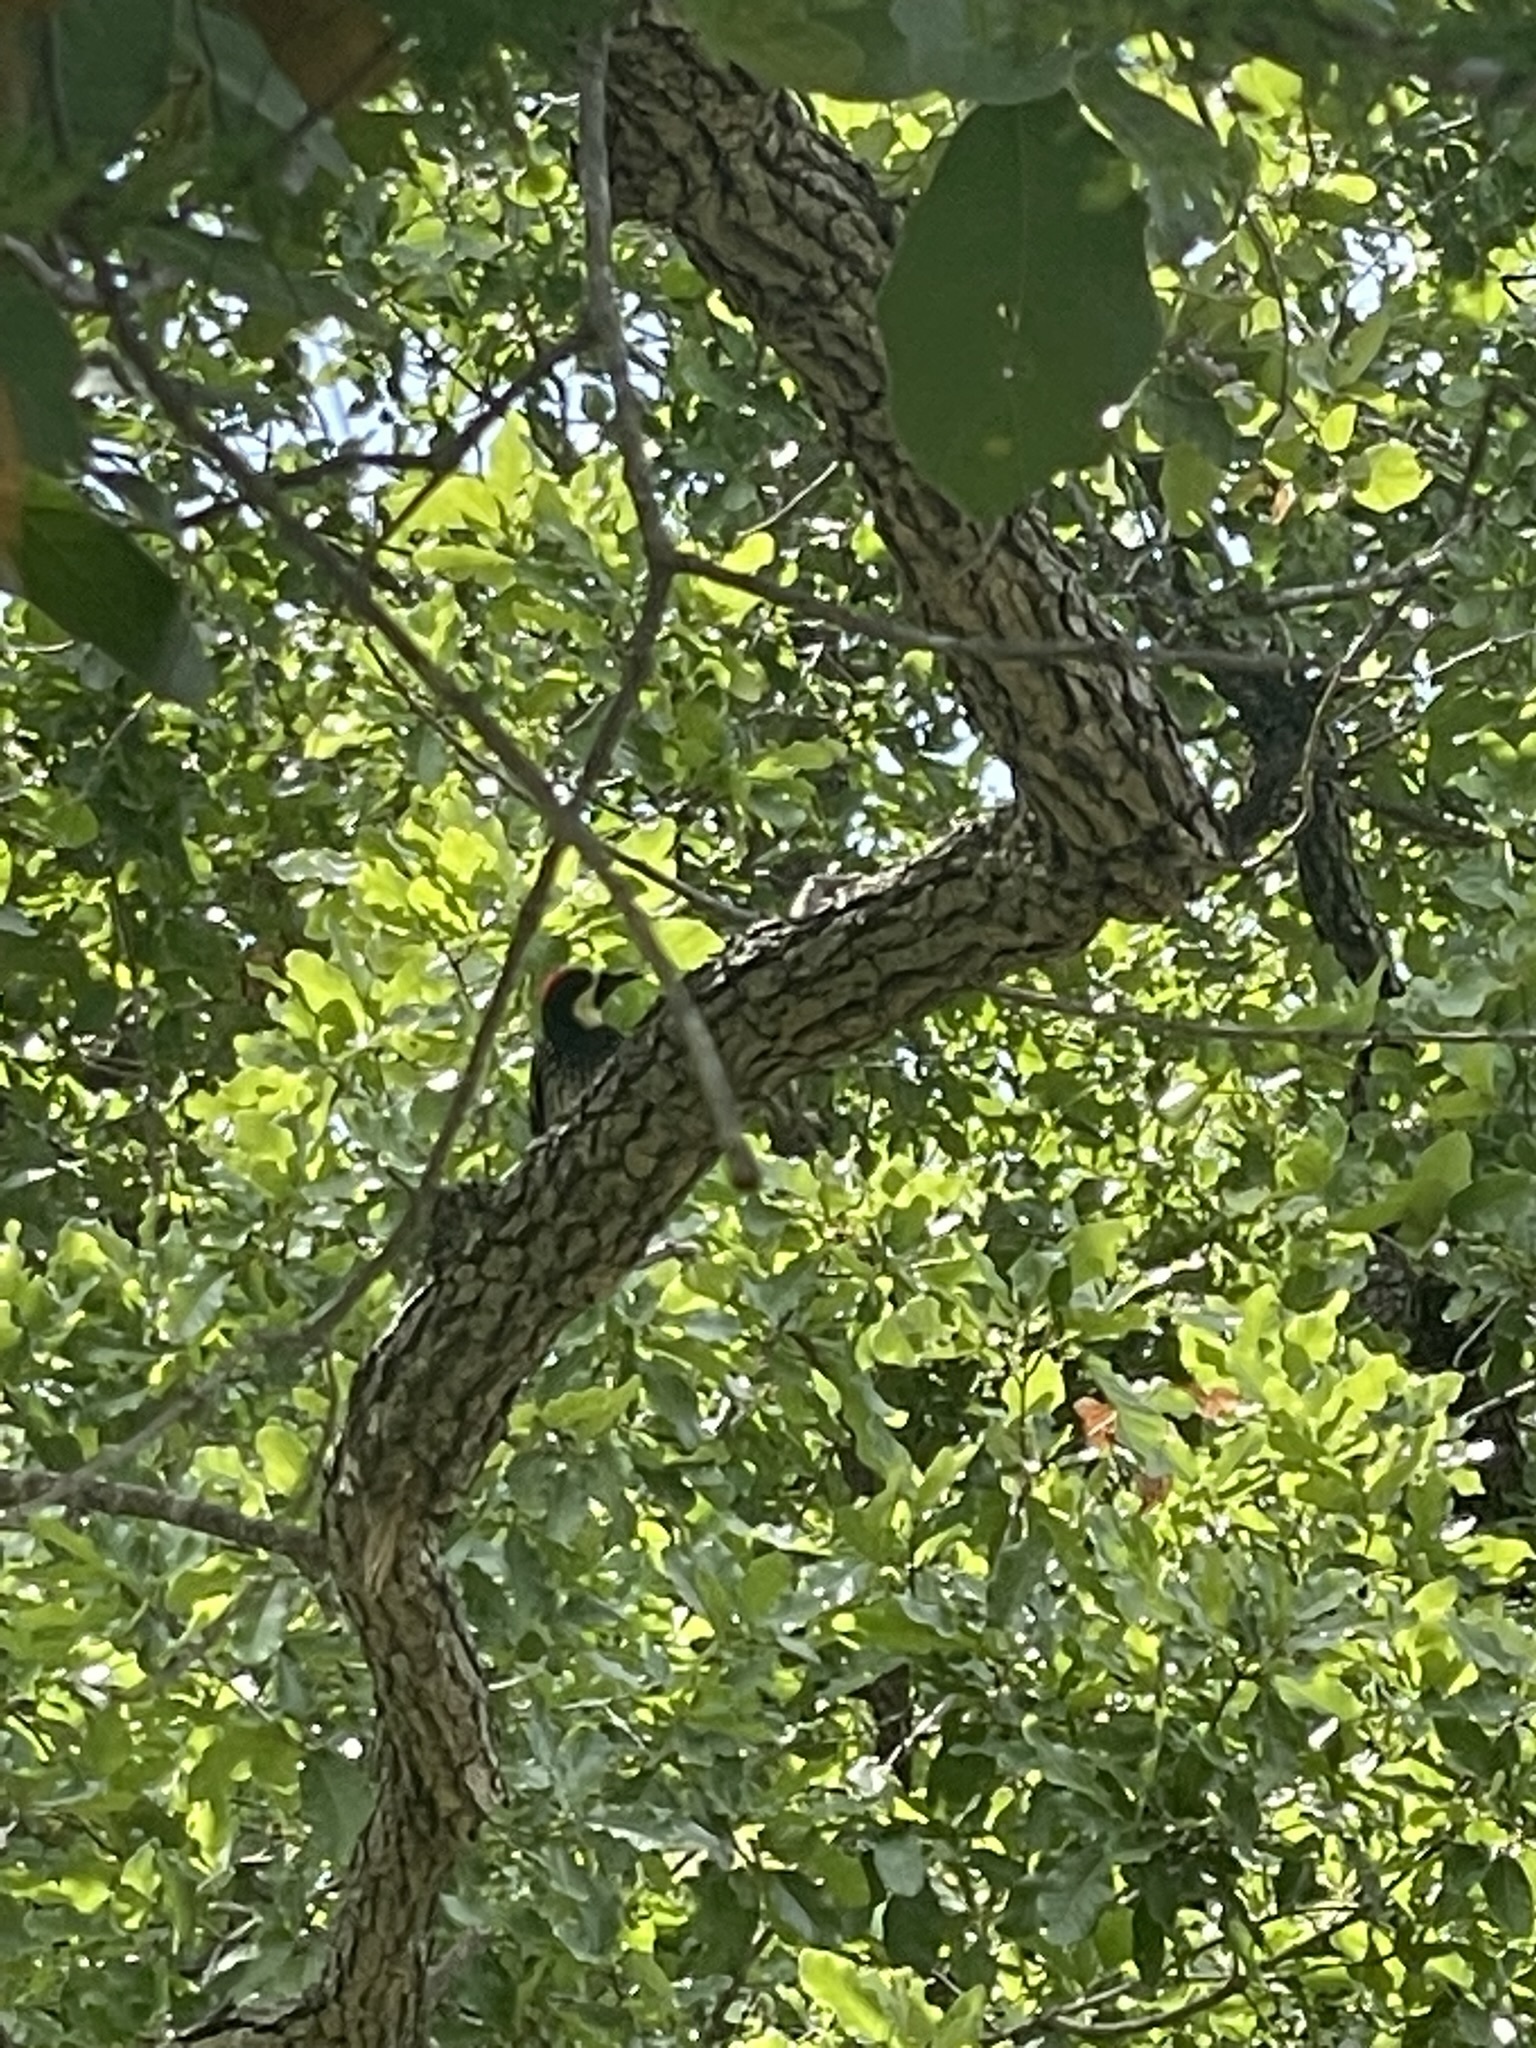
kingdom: Animalia
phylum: Chordata
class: Aves
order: Piciformes
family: Picidae
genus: Melanerpes
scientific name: Melanerpes formicivorus
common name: Acorn woodpecker
